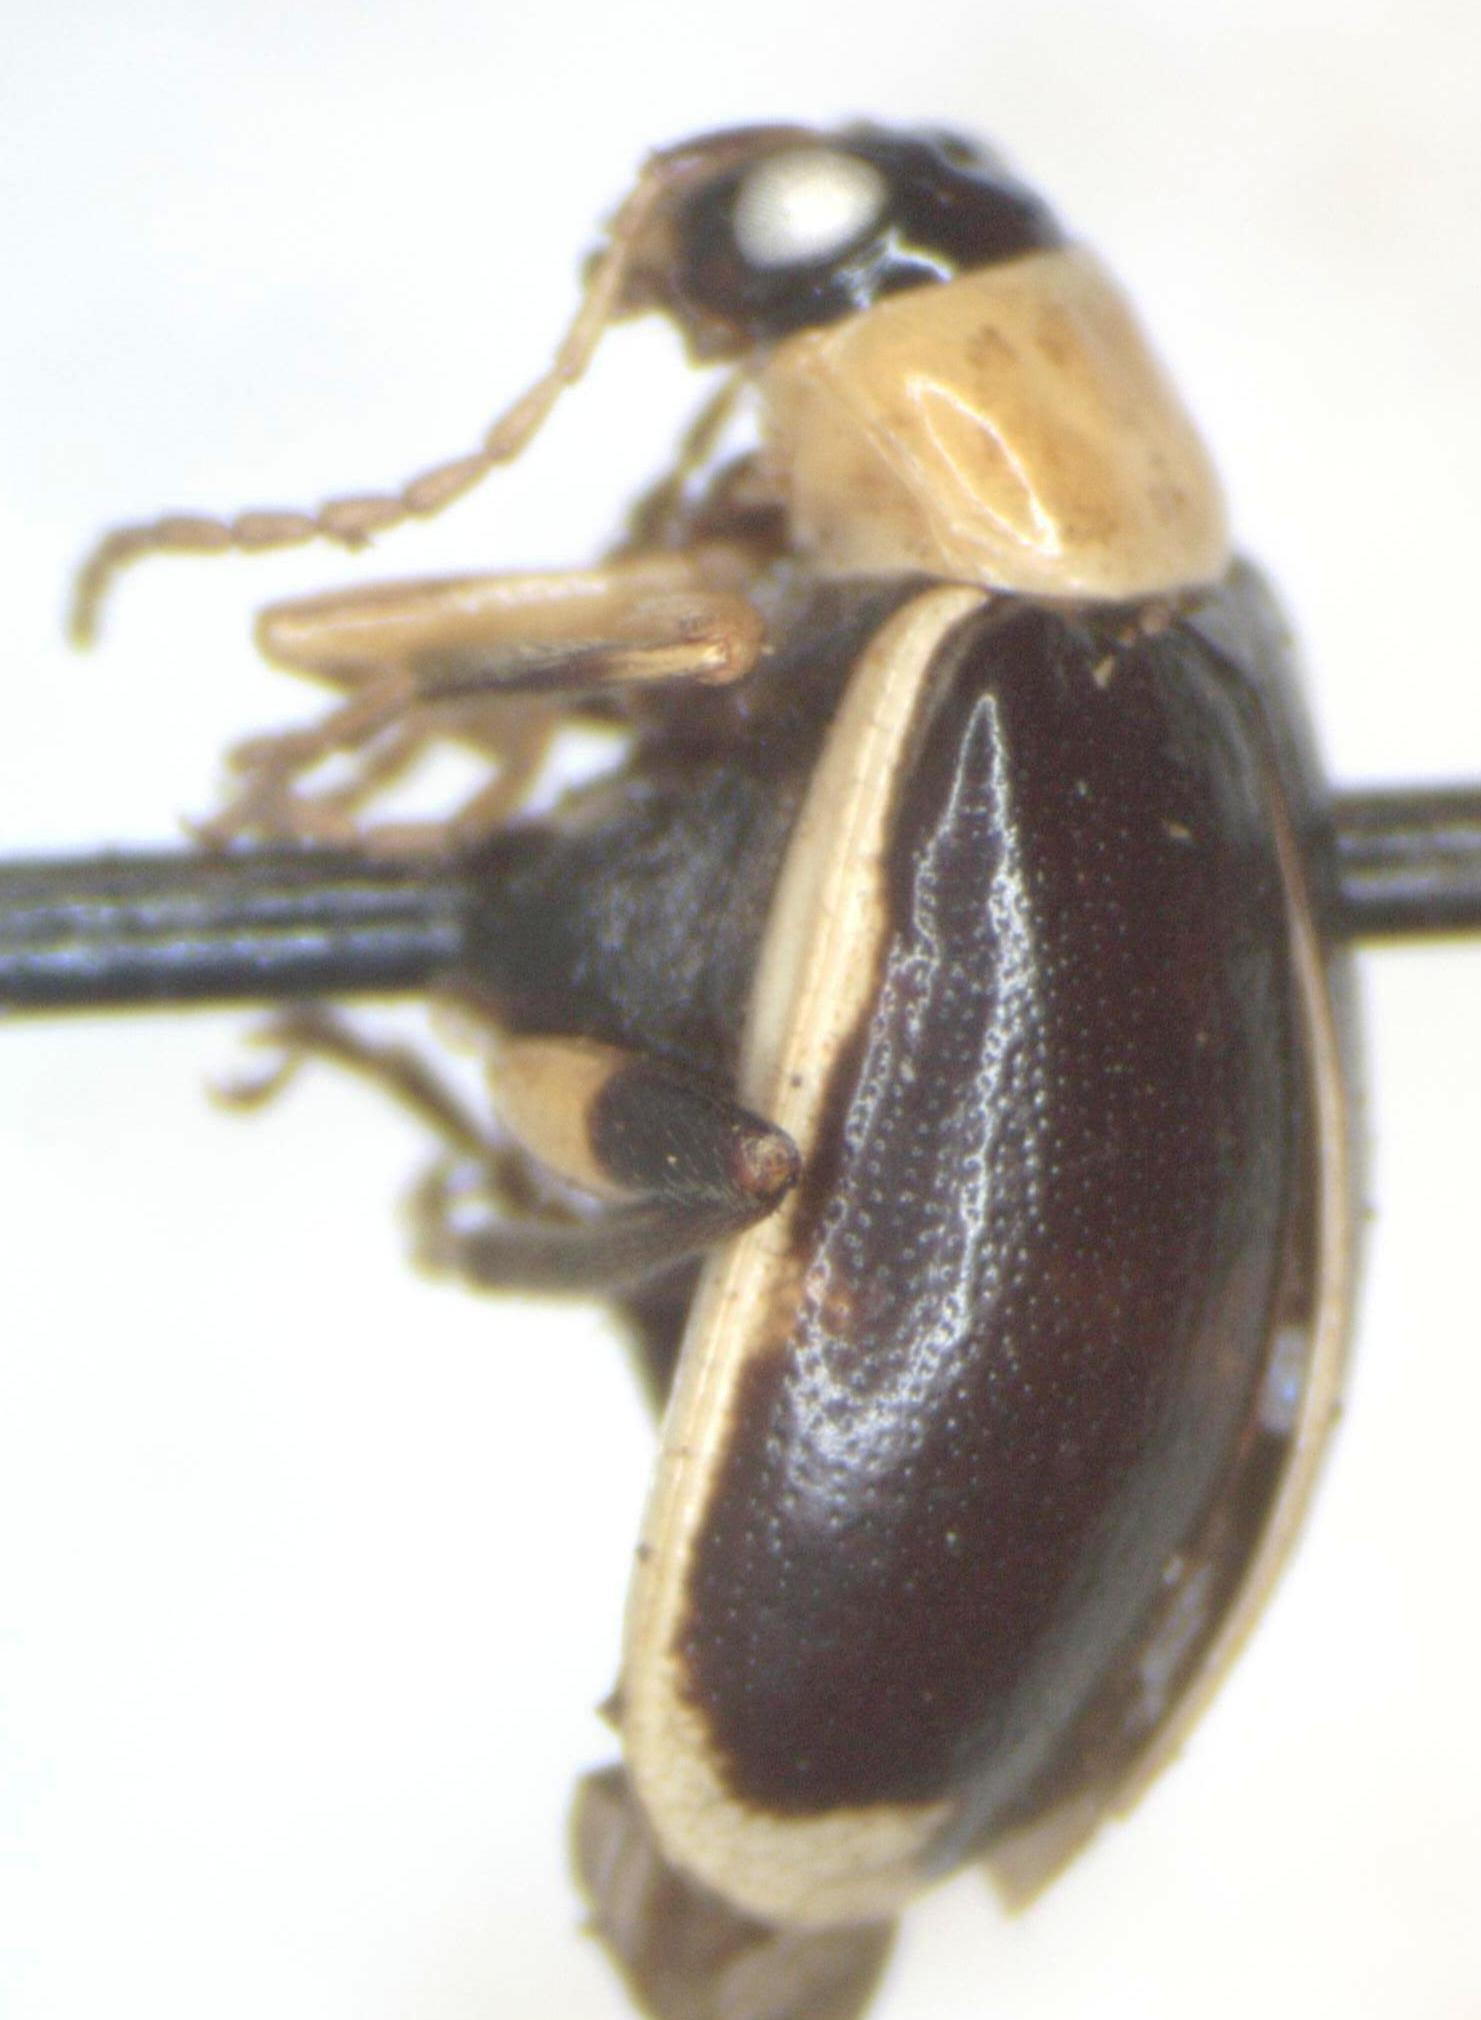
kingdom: Animalia
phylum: Arthropoda
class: Insecta
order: Coleoptera
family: Chrysomelidae
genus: Cerotoma
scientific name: Cerotoma atrofasciata
